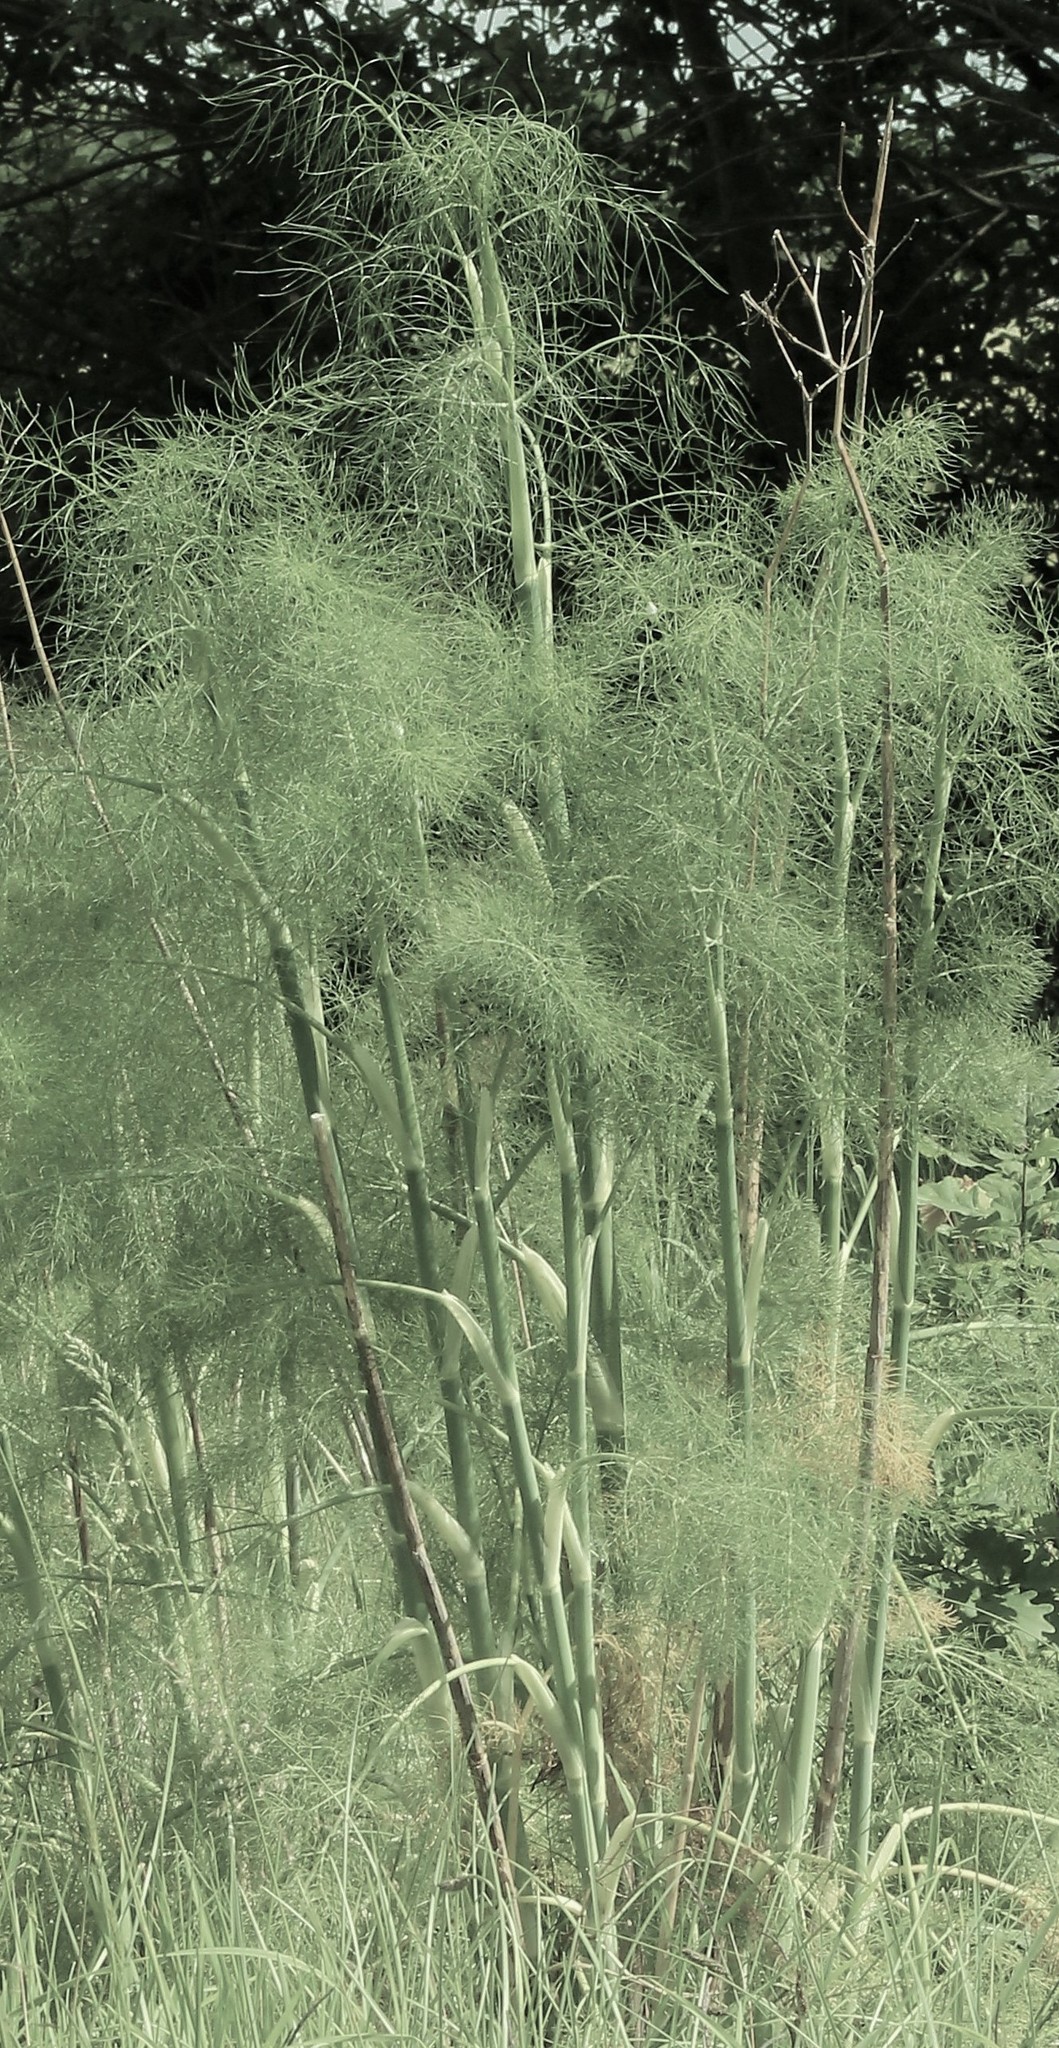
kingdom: Plantae
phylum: Tracheophyta
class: Magnoliopsida
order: Apiales
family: Apiaceae
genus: Foeniculum
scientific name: Foeniculum vulgare
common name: Fennel
